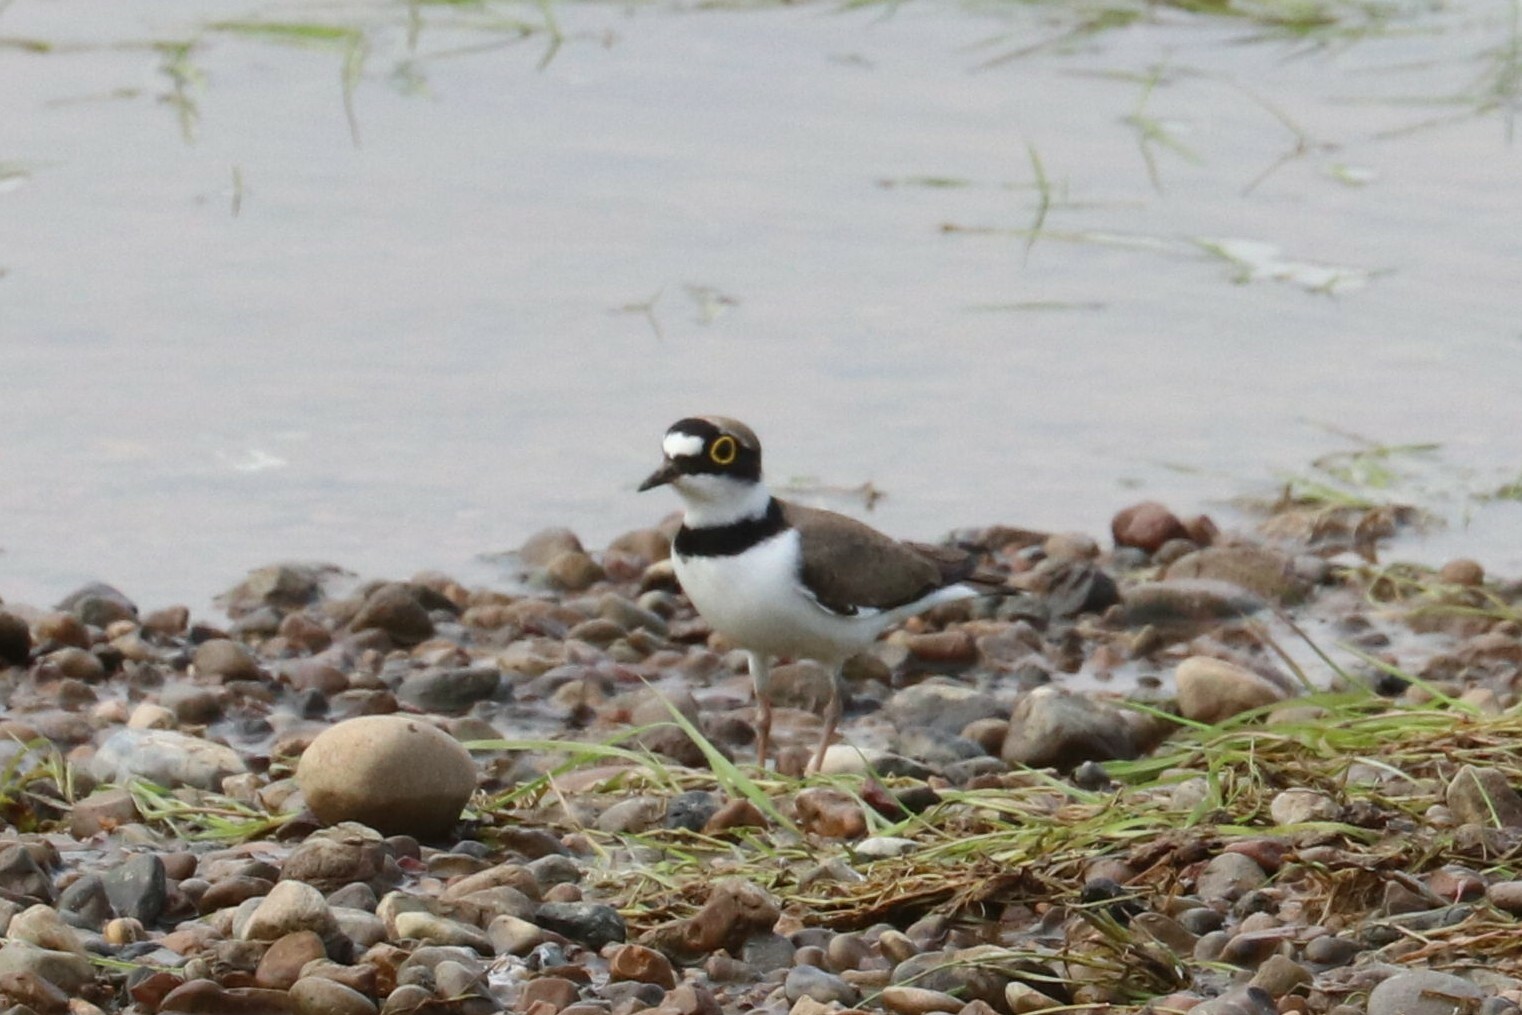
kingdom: Animalia
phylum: Chordata
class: Aves
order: Charadriiformes
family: Charadriidae
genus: Charadrius
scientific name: Charadrius dubius
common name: Little ringed plover
